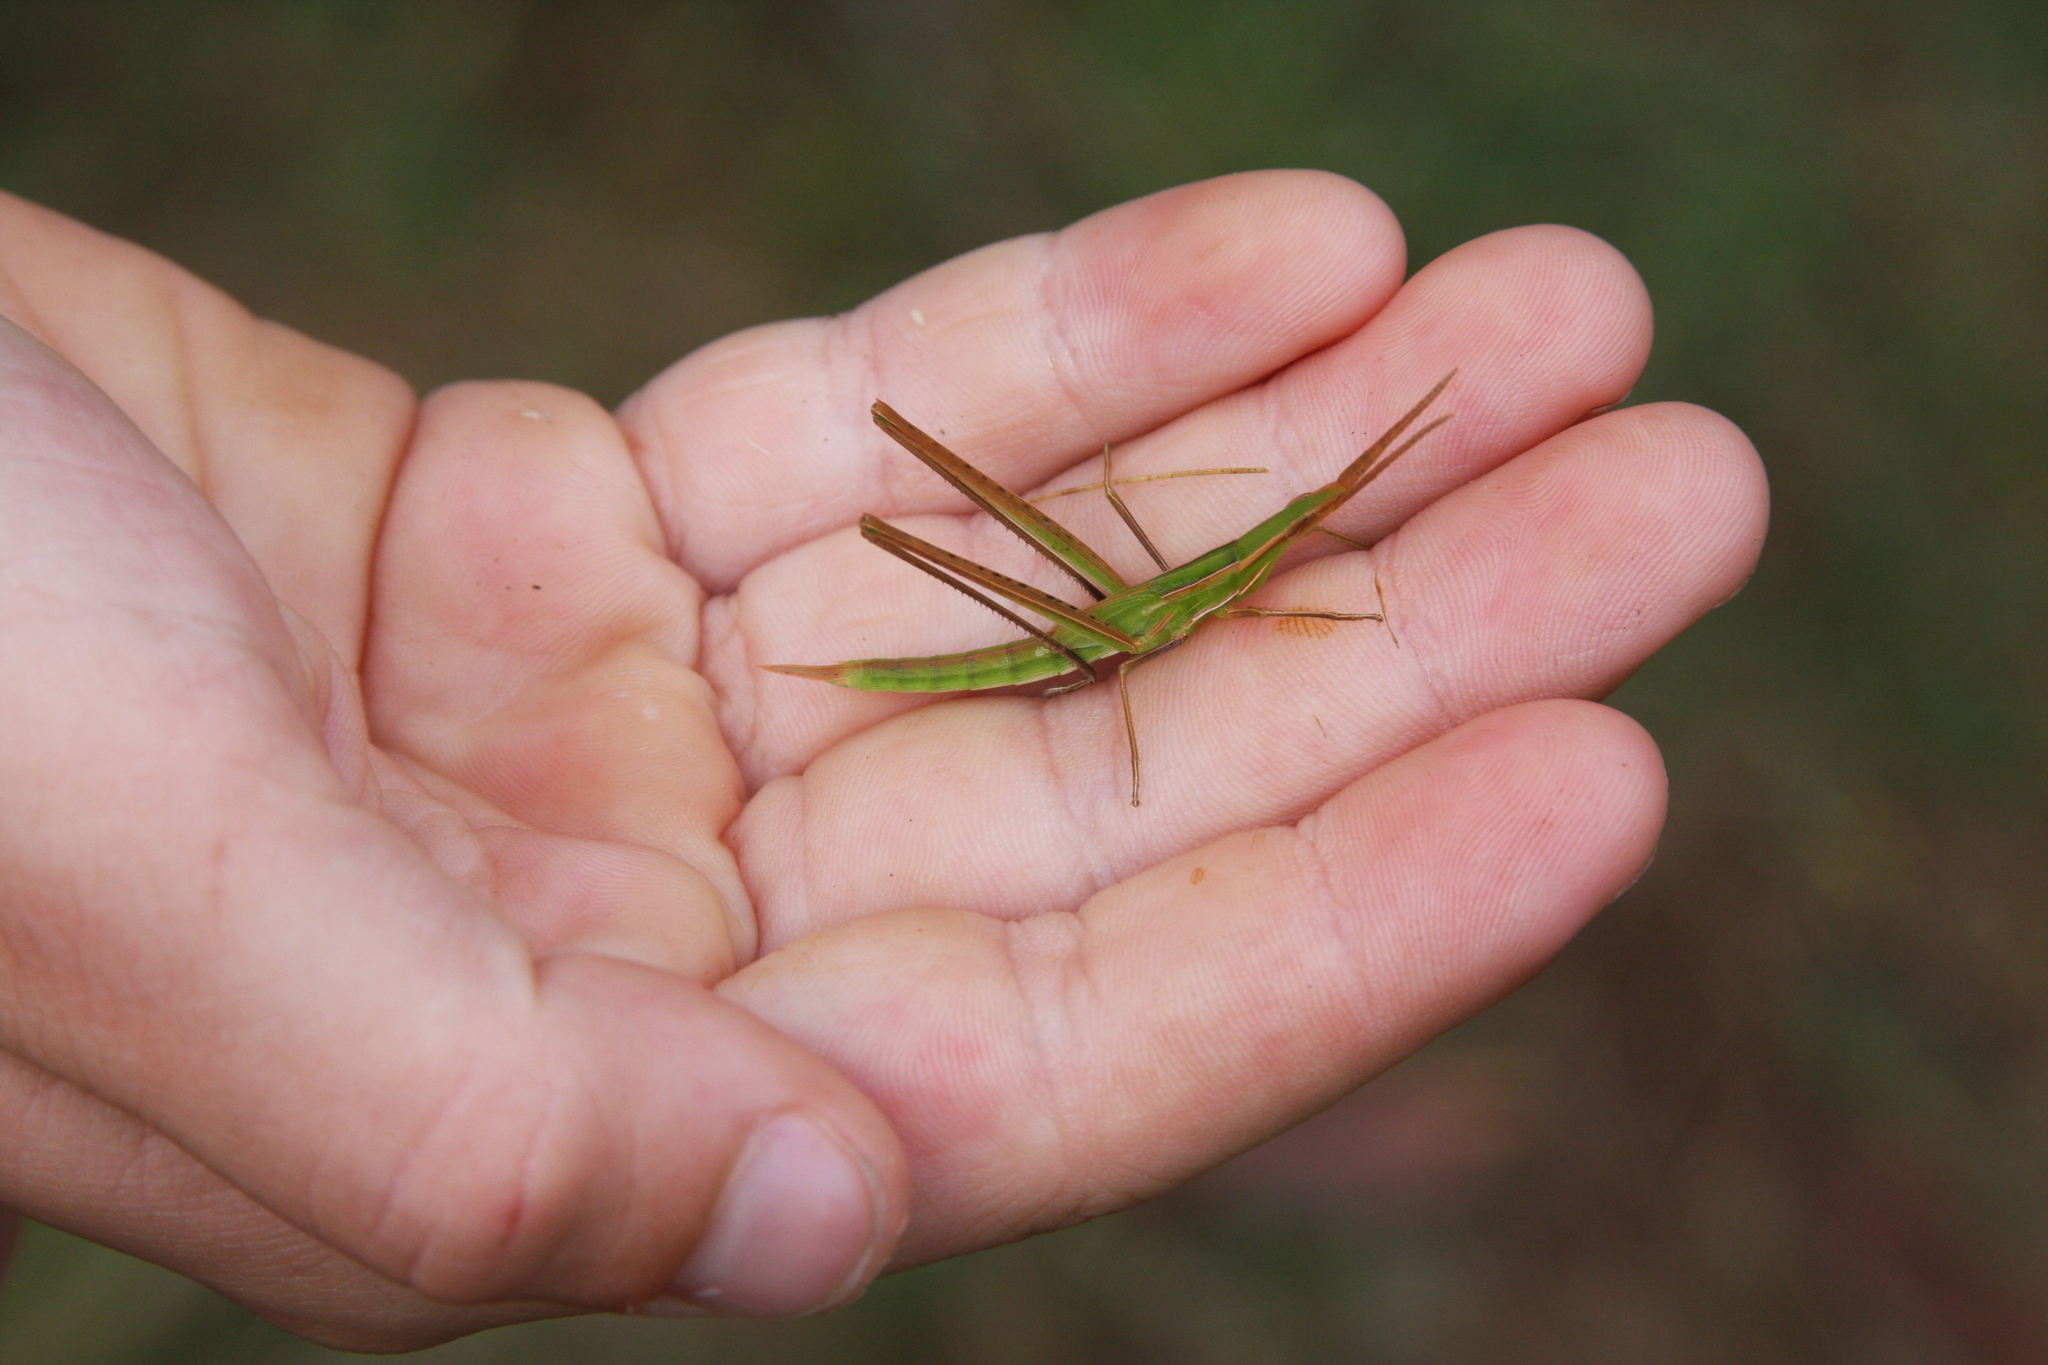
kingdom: Animalia
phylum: Arthropoda
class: Insecta
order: Orthoptera
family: Acrididae
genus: Acrida
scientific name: Acrida conica
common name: Giant green slantface
